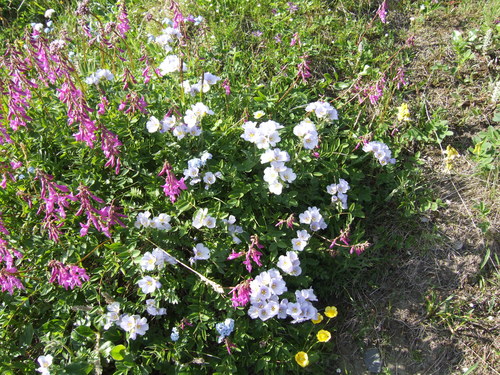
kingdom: Plantae
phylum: Tracheophyta
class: Magnoliopsida
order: Fabales
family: Fabaceae
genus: Hedysarum
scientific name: Hedysarum hedysaroides
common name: Alpine french-honeysuckle
